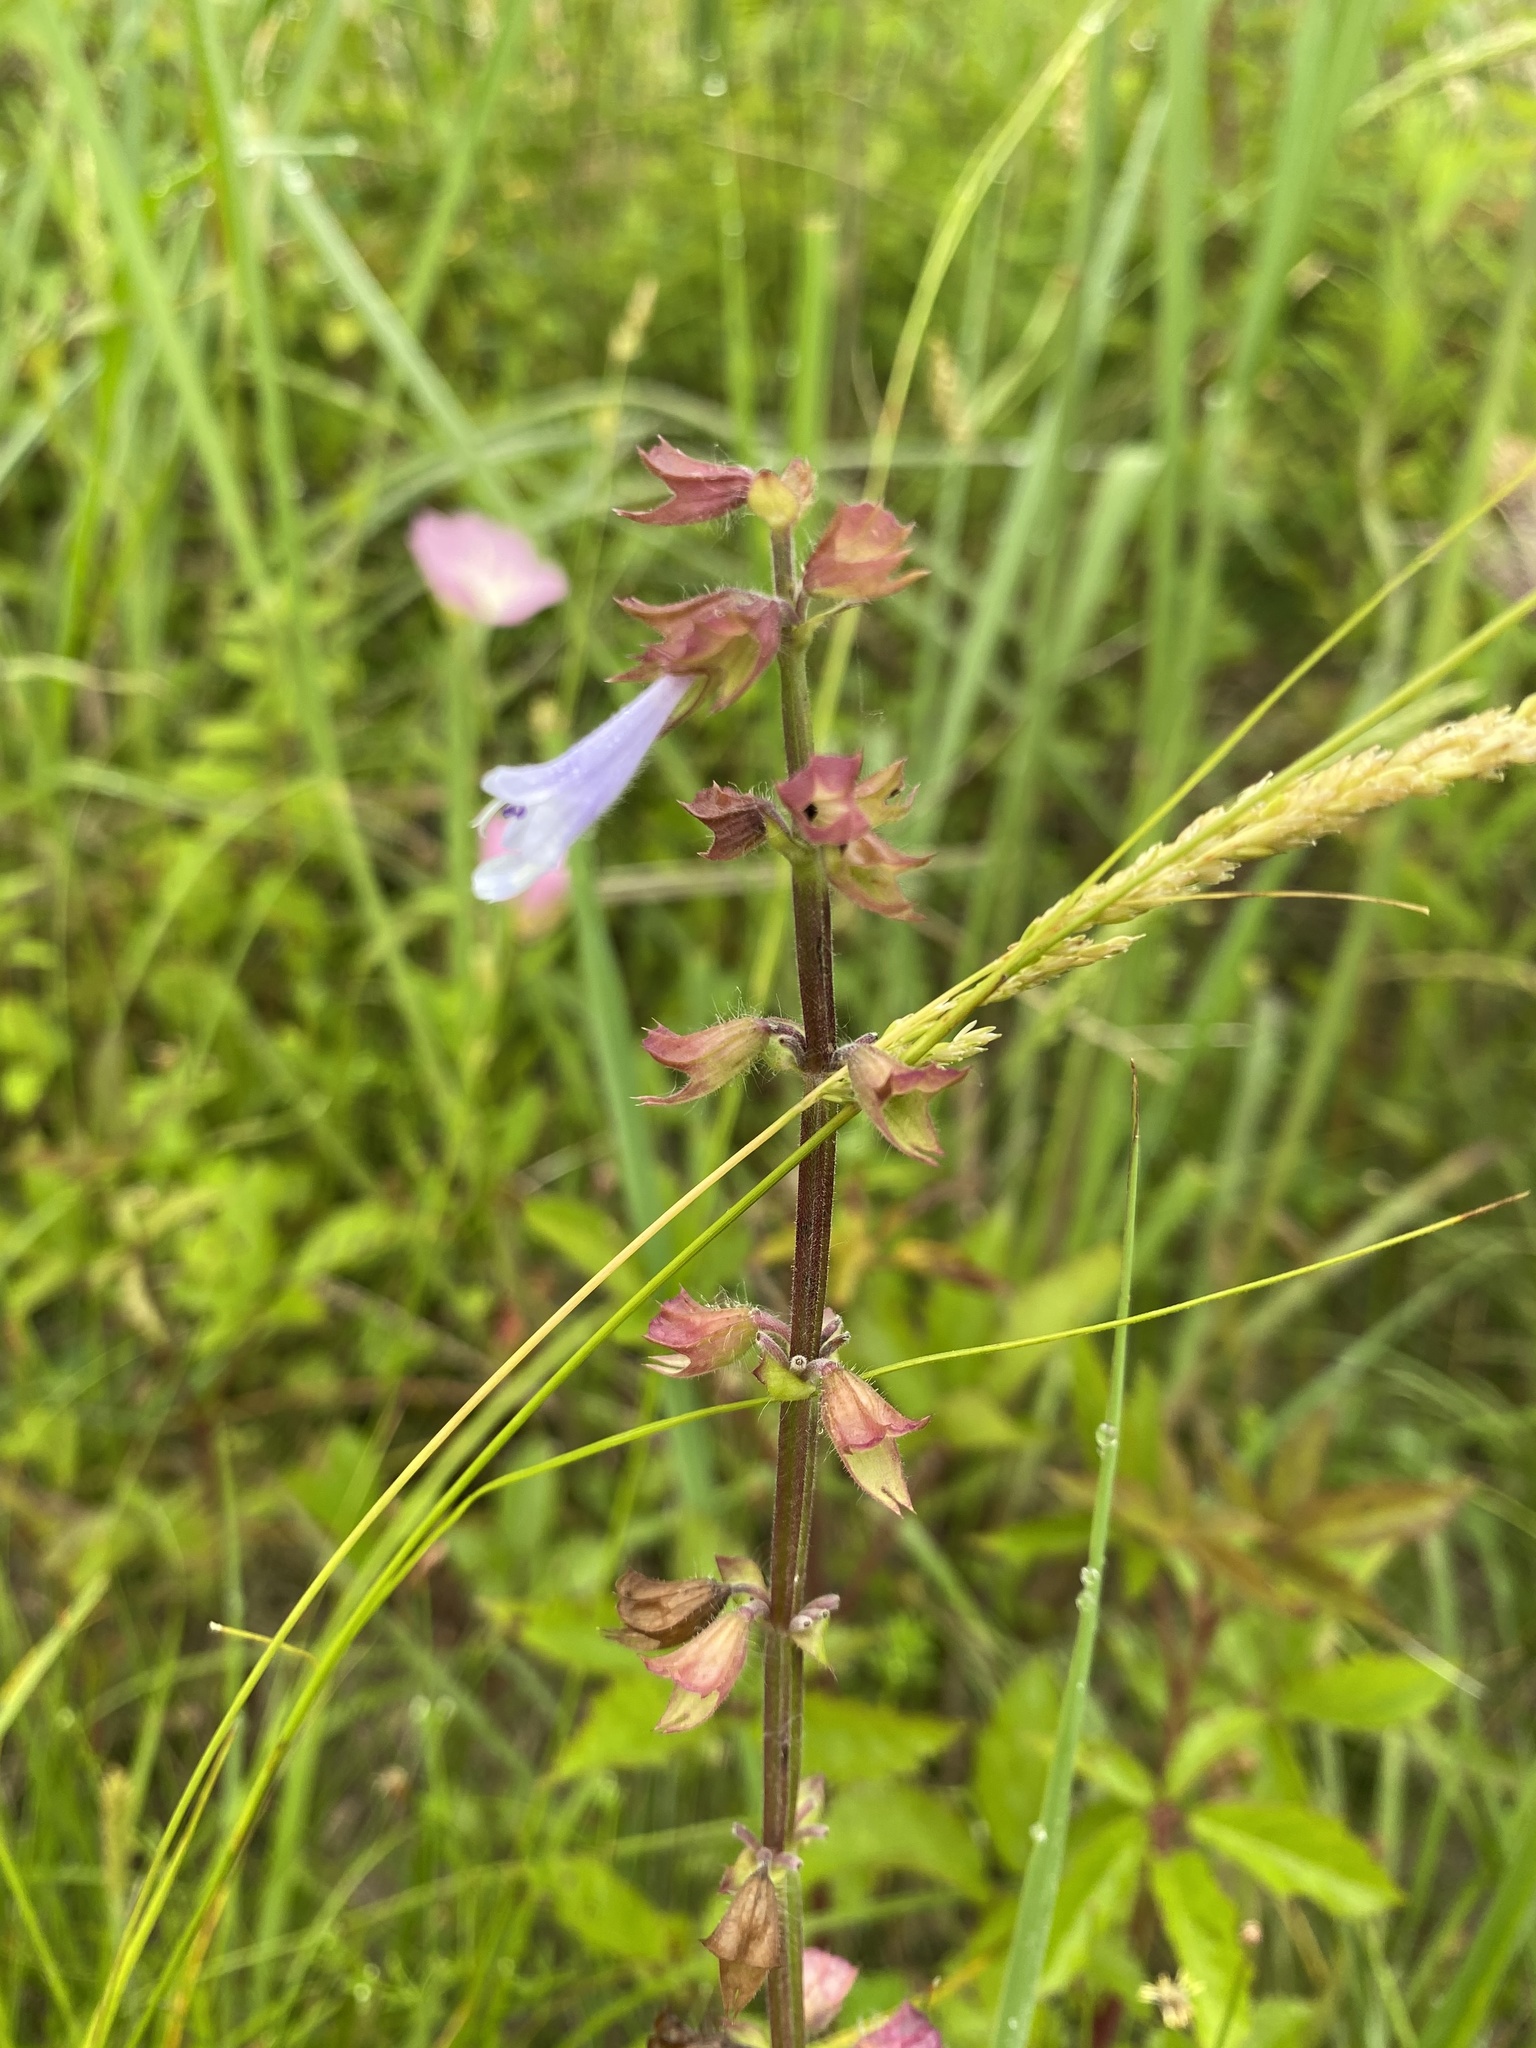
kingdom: Plantae
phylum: Tracheophyta
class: Magnoliopsida
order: Lamiales
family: Lamiaceae
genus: Salvia
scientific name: Salvia lyrata
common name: Cancerweed
